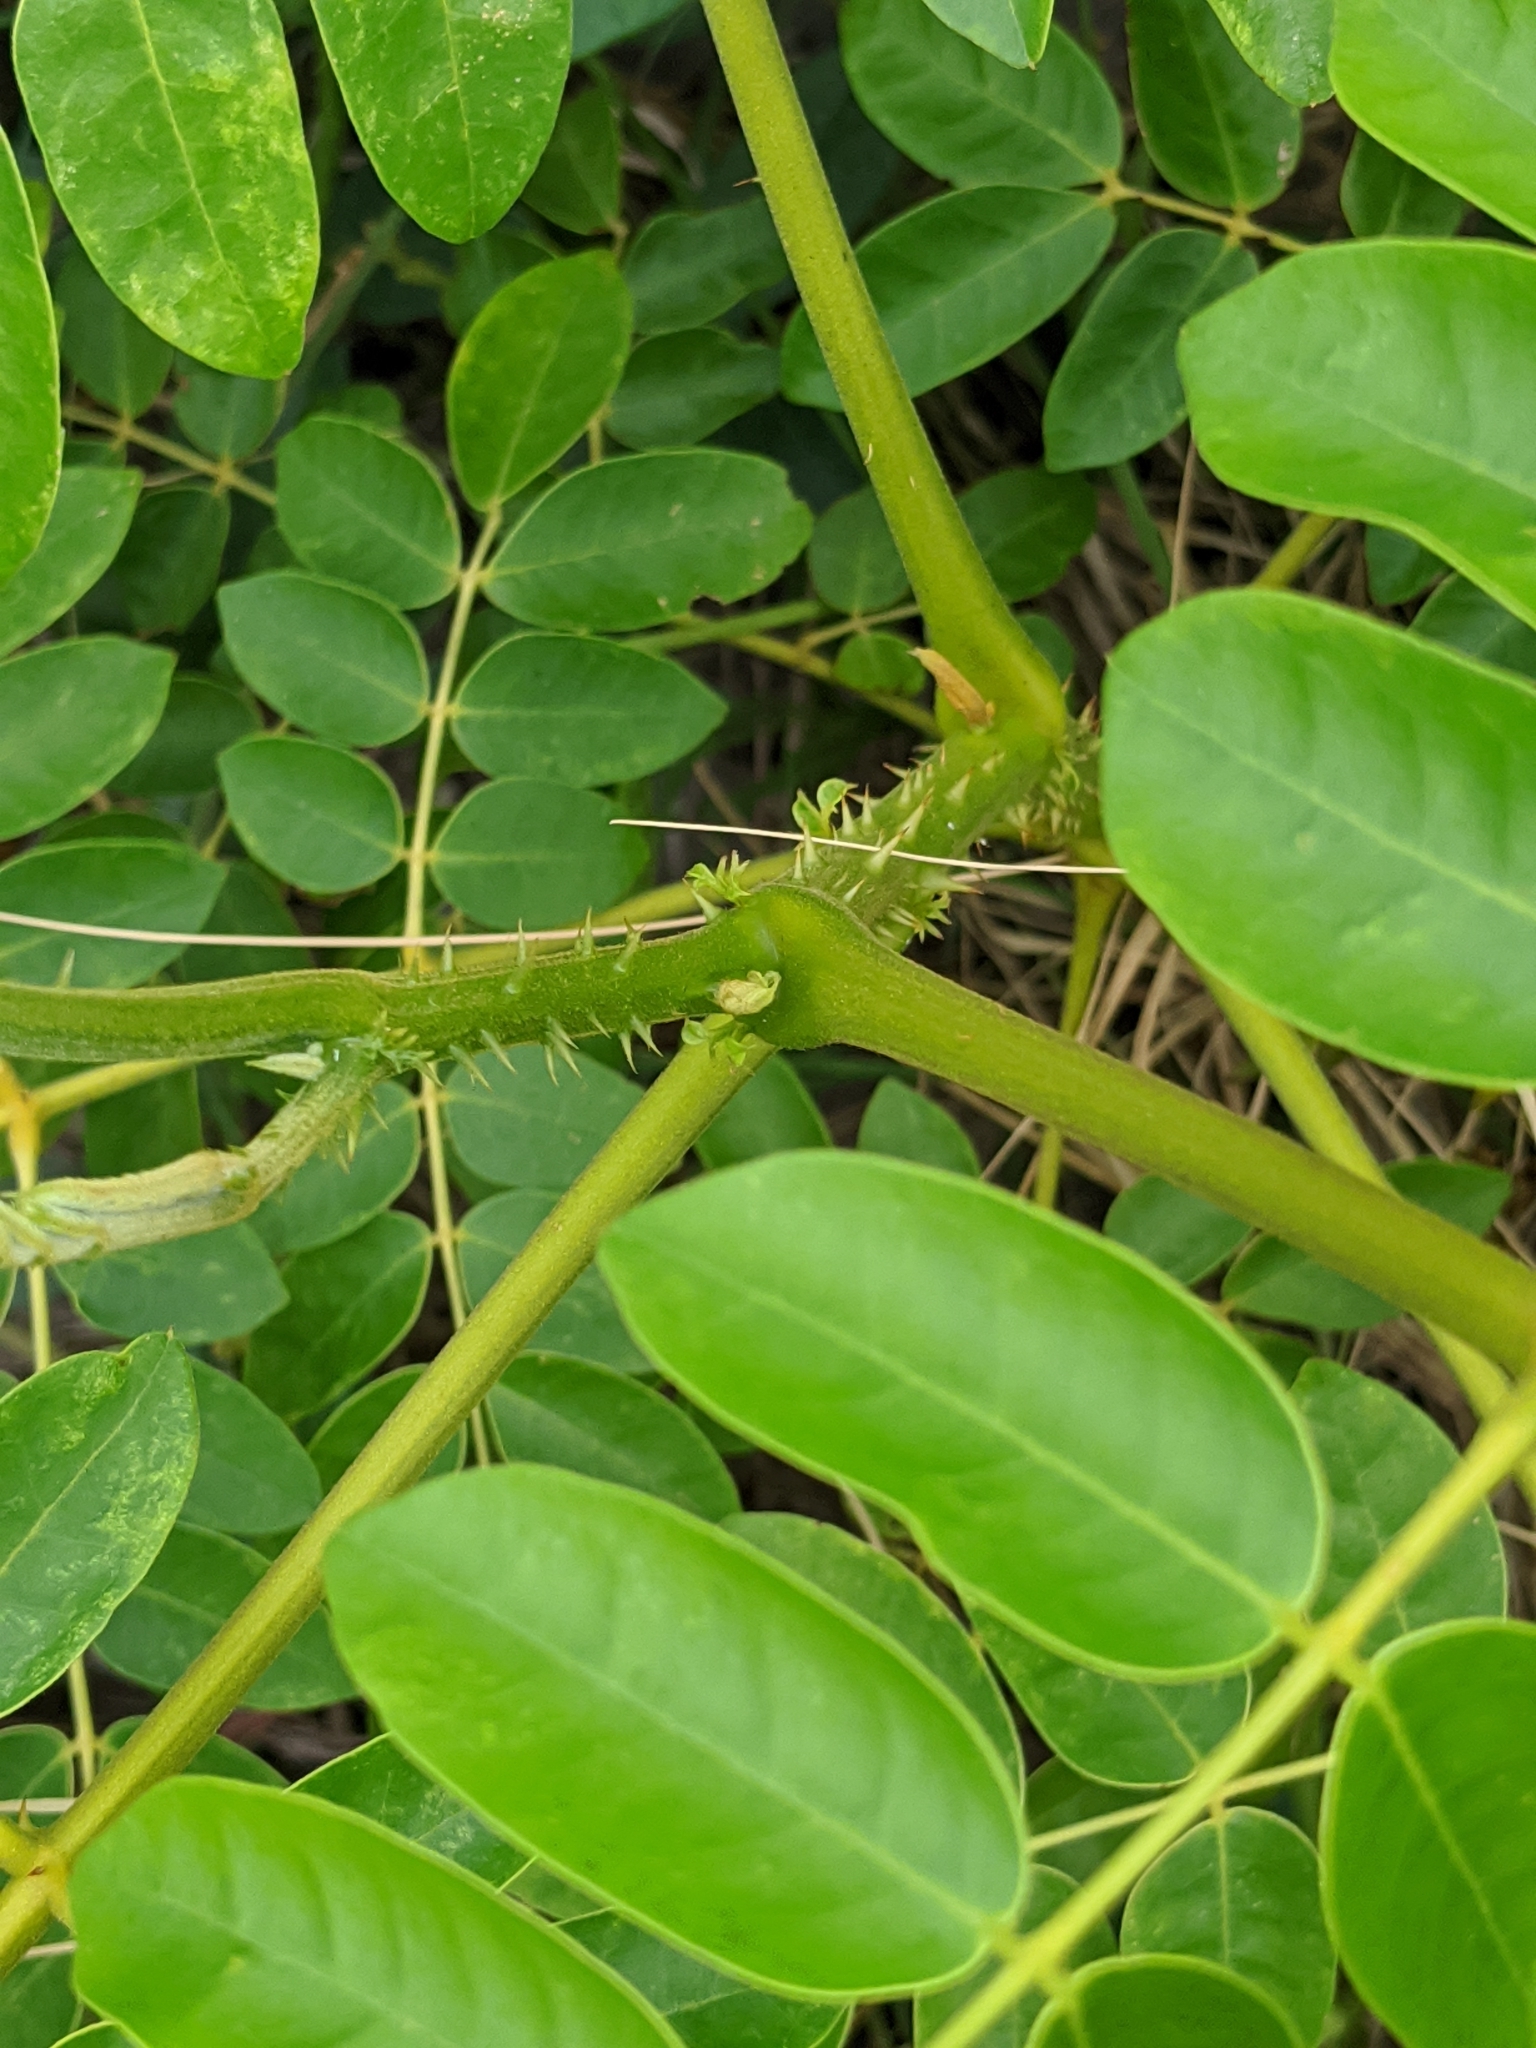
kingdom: Plantae
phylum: Tracheophyta
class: Magnoliopsida
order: Fabales
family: Fabaceae
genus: Guilandina
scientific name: Guilandina bonduc
